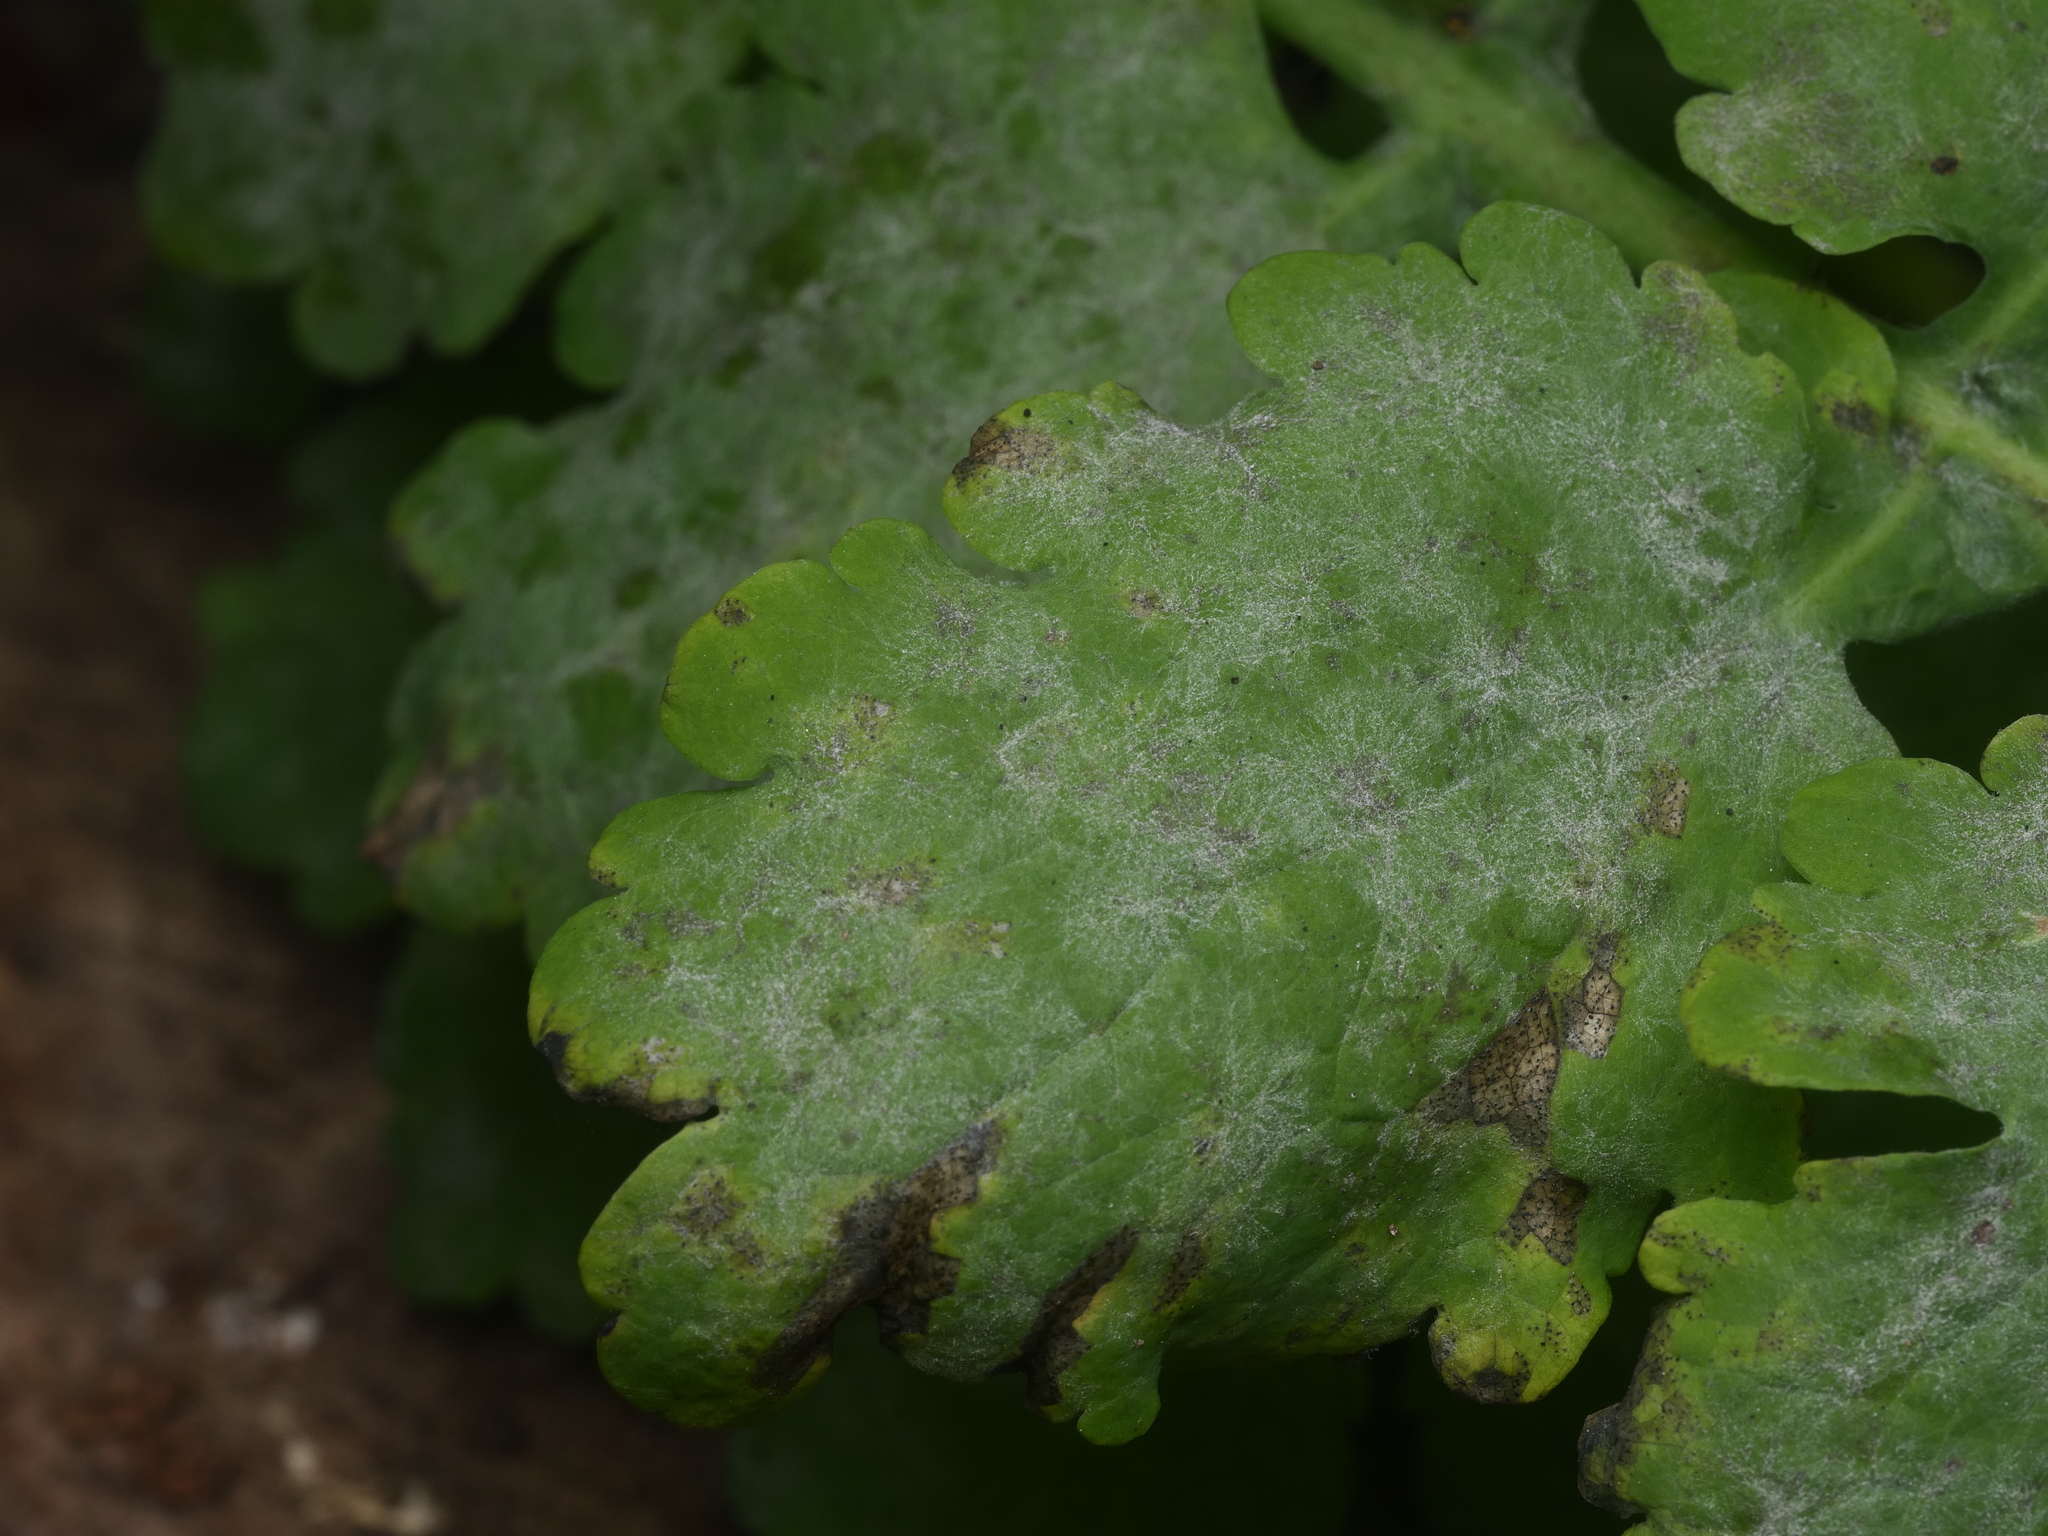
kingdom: Fungi
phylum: Ascomycota
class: Leotiomycetes
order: Helotiales
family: Erysiphaceae
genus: Erysiphe
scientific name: Erysiphe macleayae
